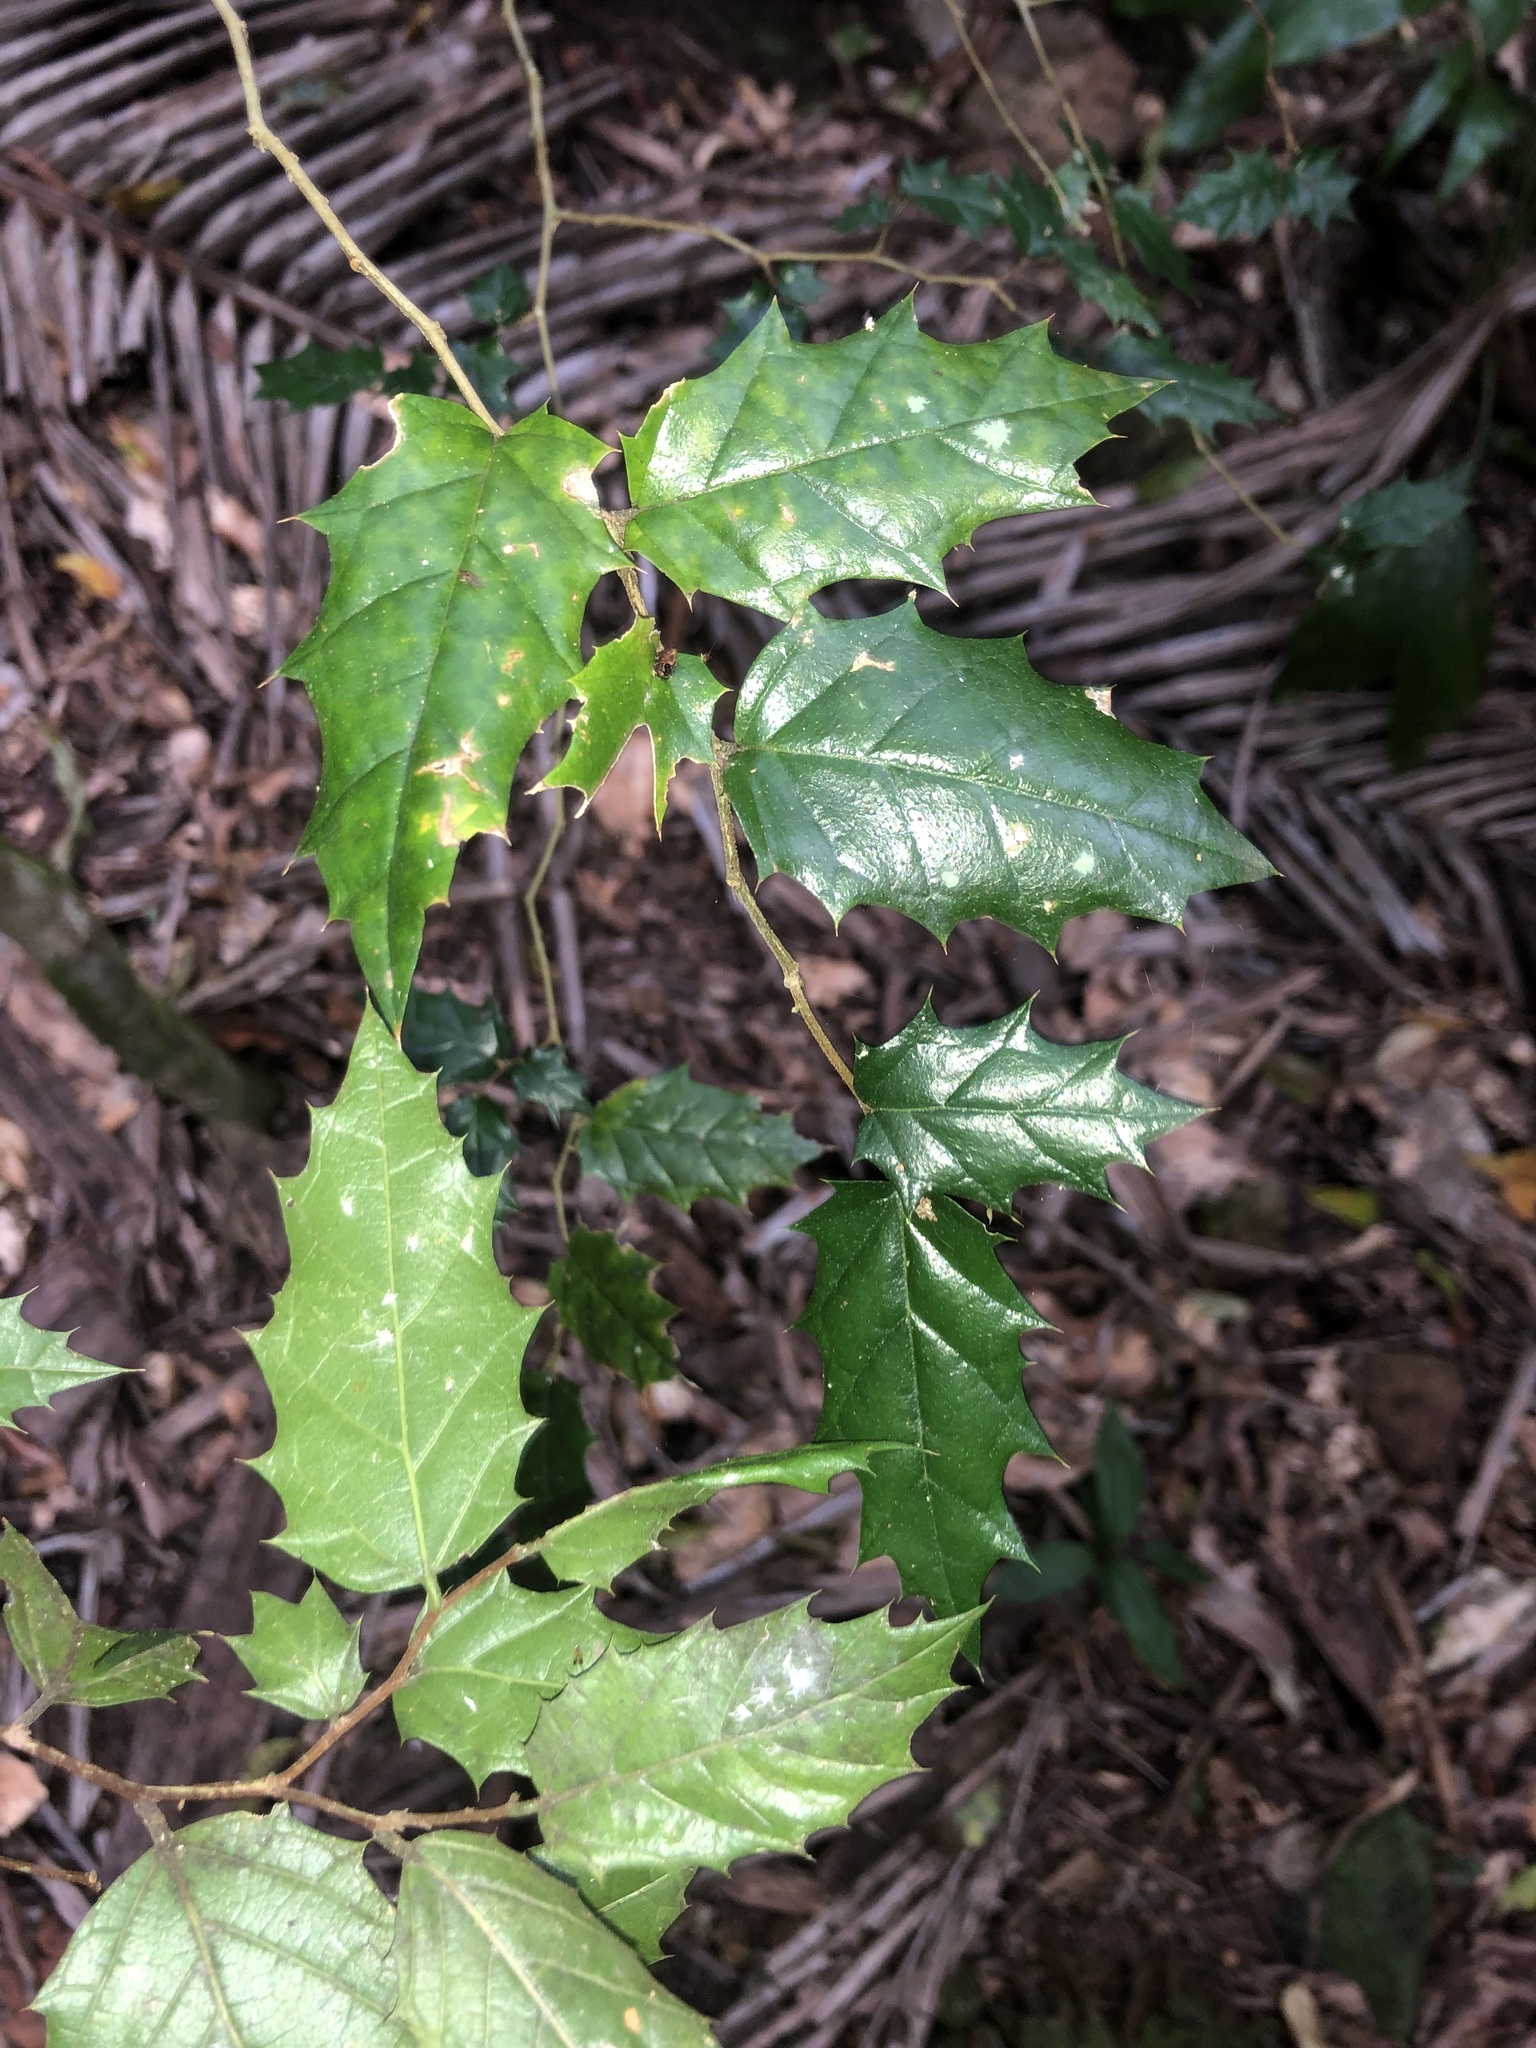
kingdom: Plantae
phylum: Tracheophyta
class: Magnoliopsida
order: Rosales
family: Cannabaceae
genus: Aphananthe
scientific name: Aphananthe philippinensis
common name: Wild holly
